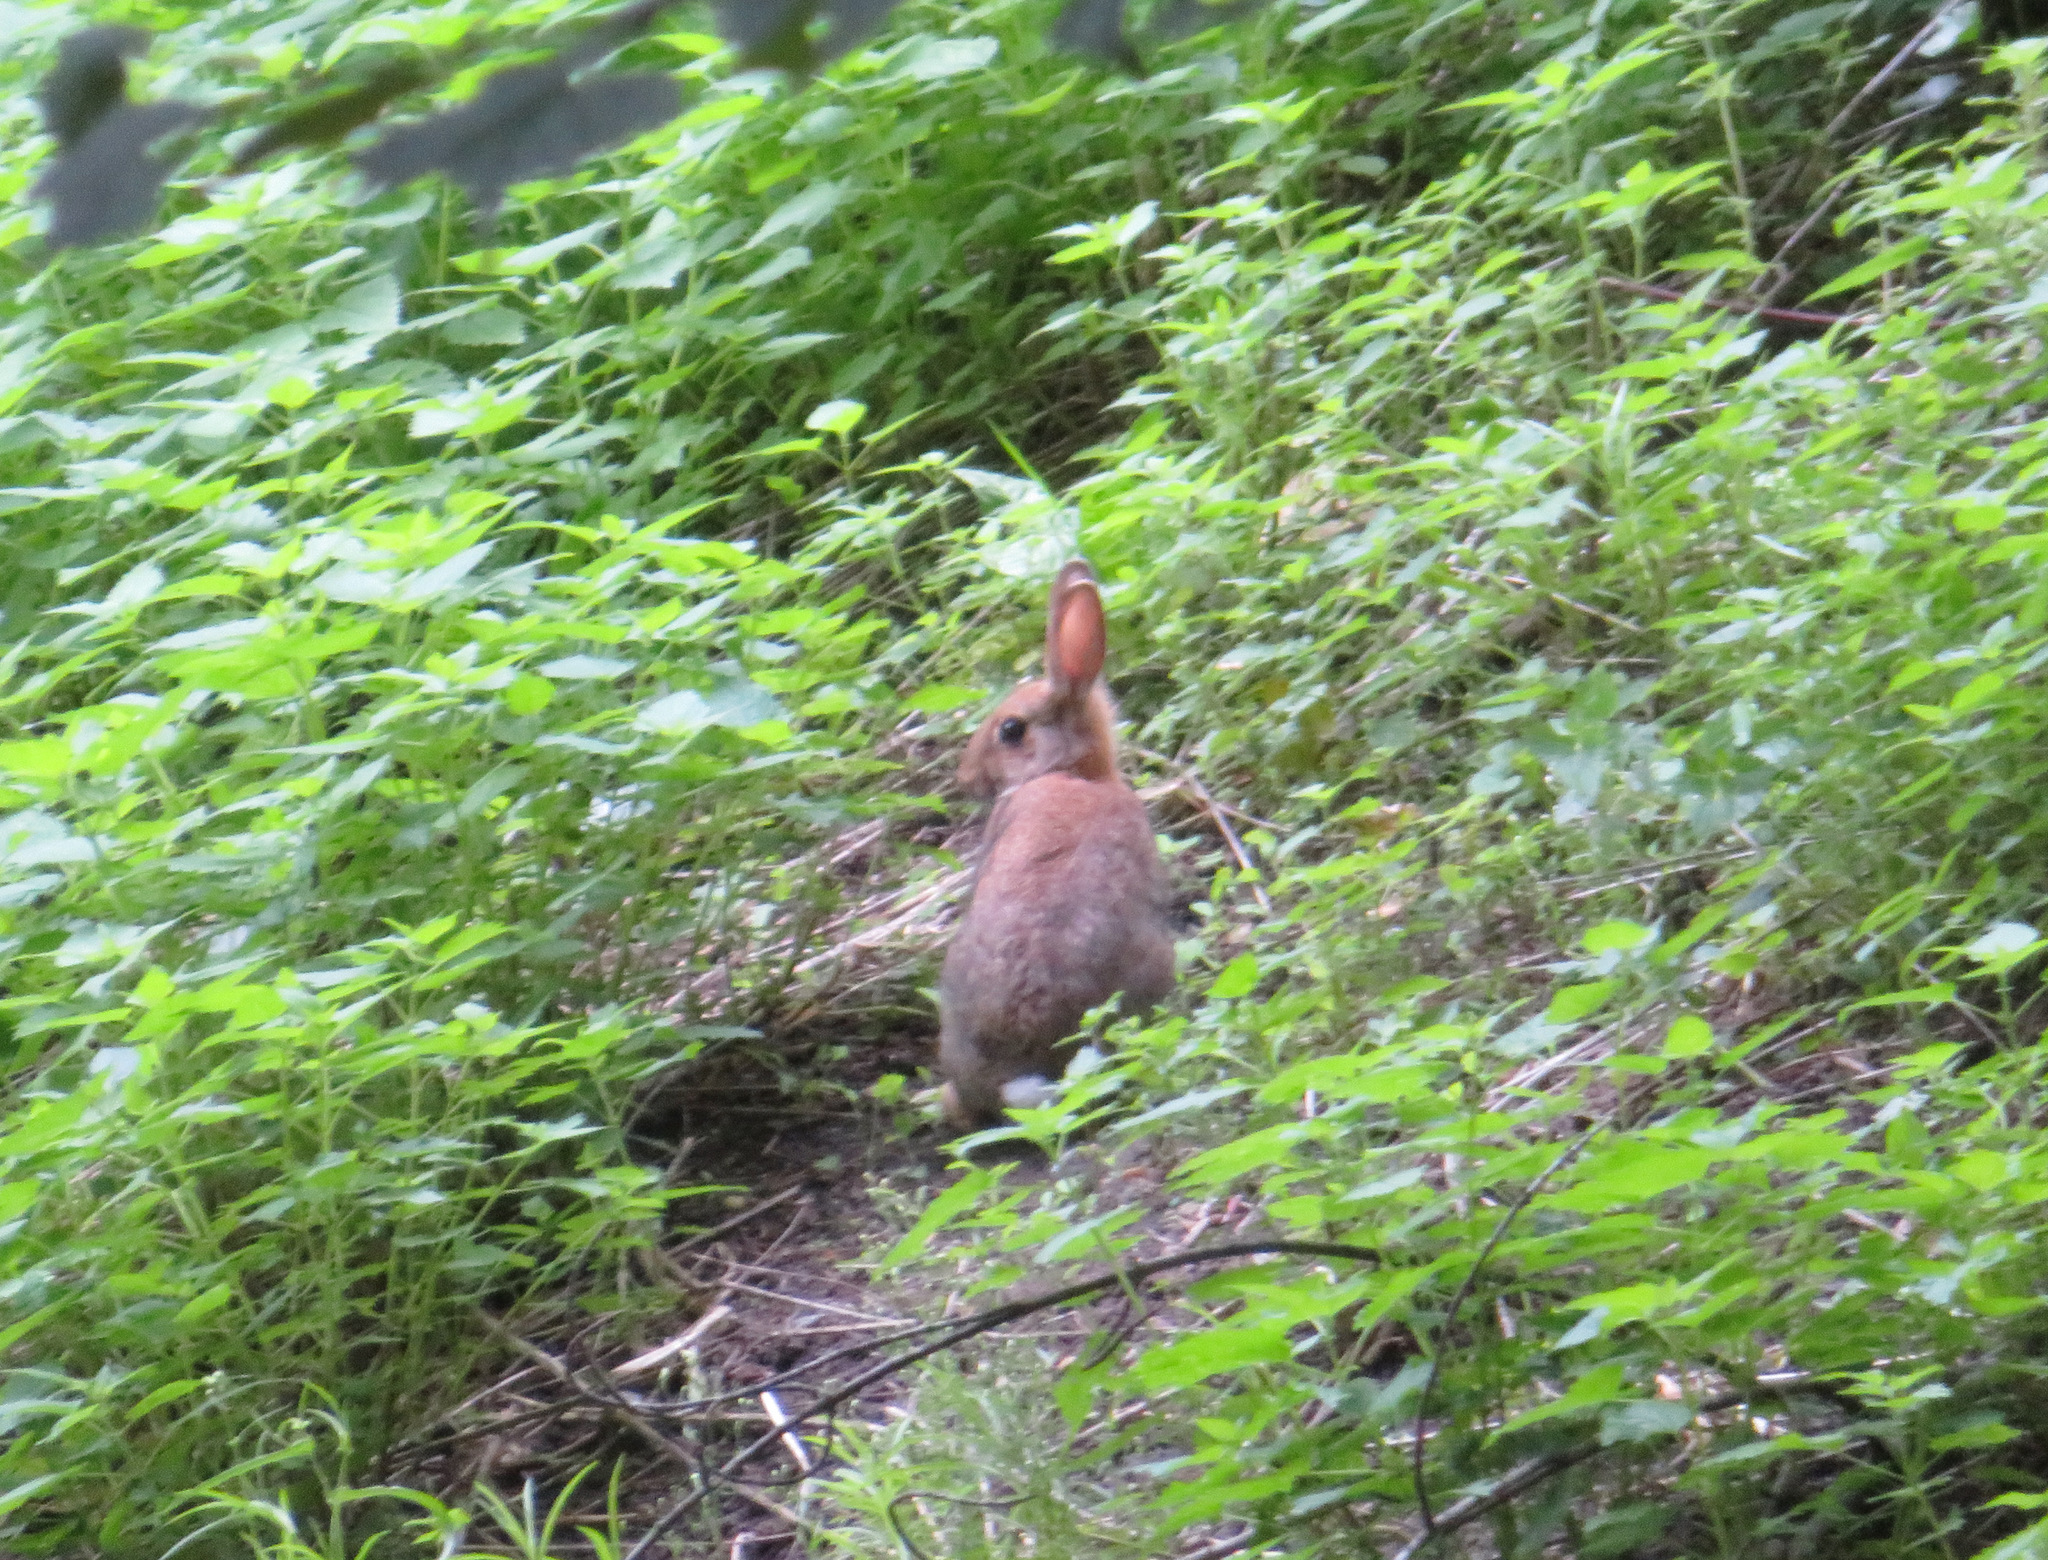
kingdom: Animalia
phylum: Chordata
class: Mammalia
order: Lagomorpha
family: Leporidae
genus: Oryctolagus
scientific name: Oryctolagus cuniculus
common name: European rabbit
